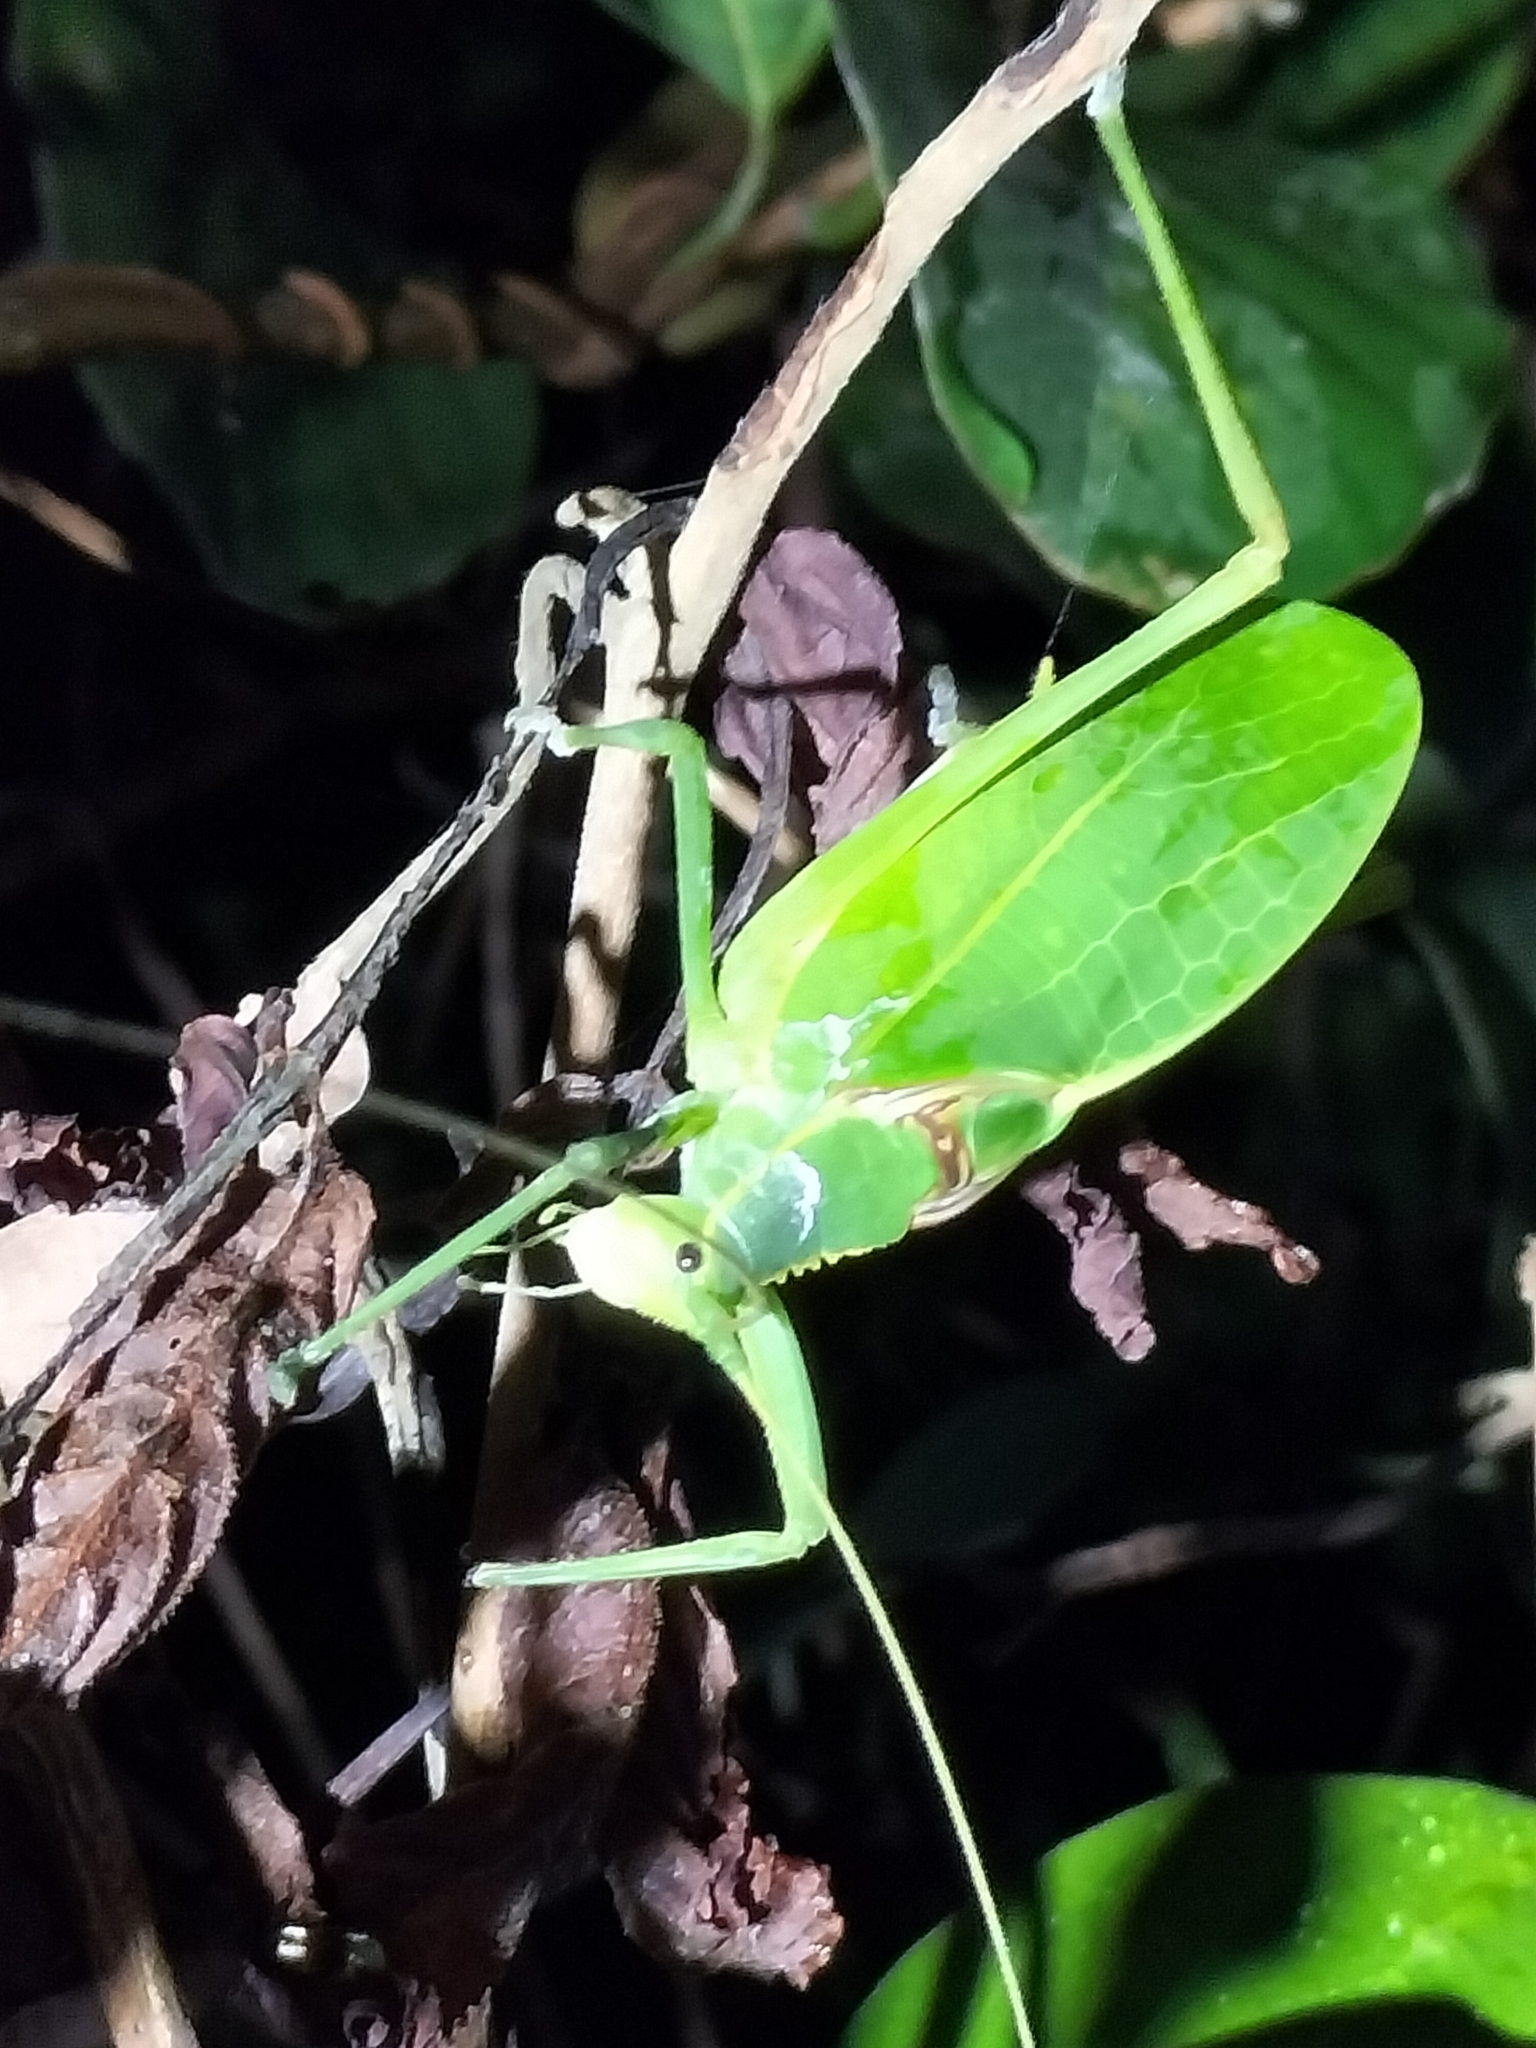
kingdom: Animalia
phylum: Arthropoda
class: Insecta
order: Orthoptera
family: Tettigoniidae
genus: Mastighaphoides
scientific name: Mastighaphoides tuberculatus
